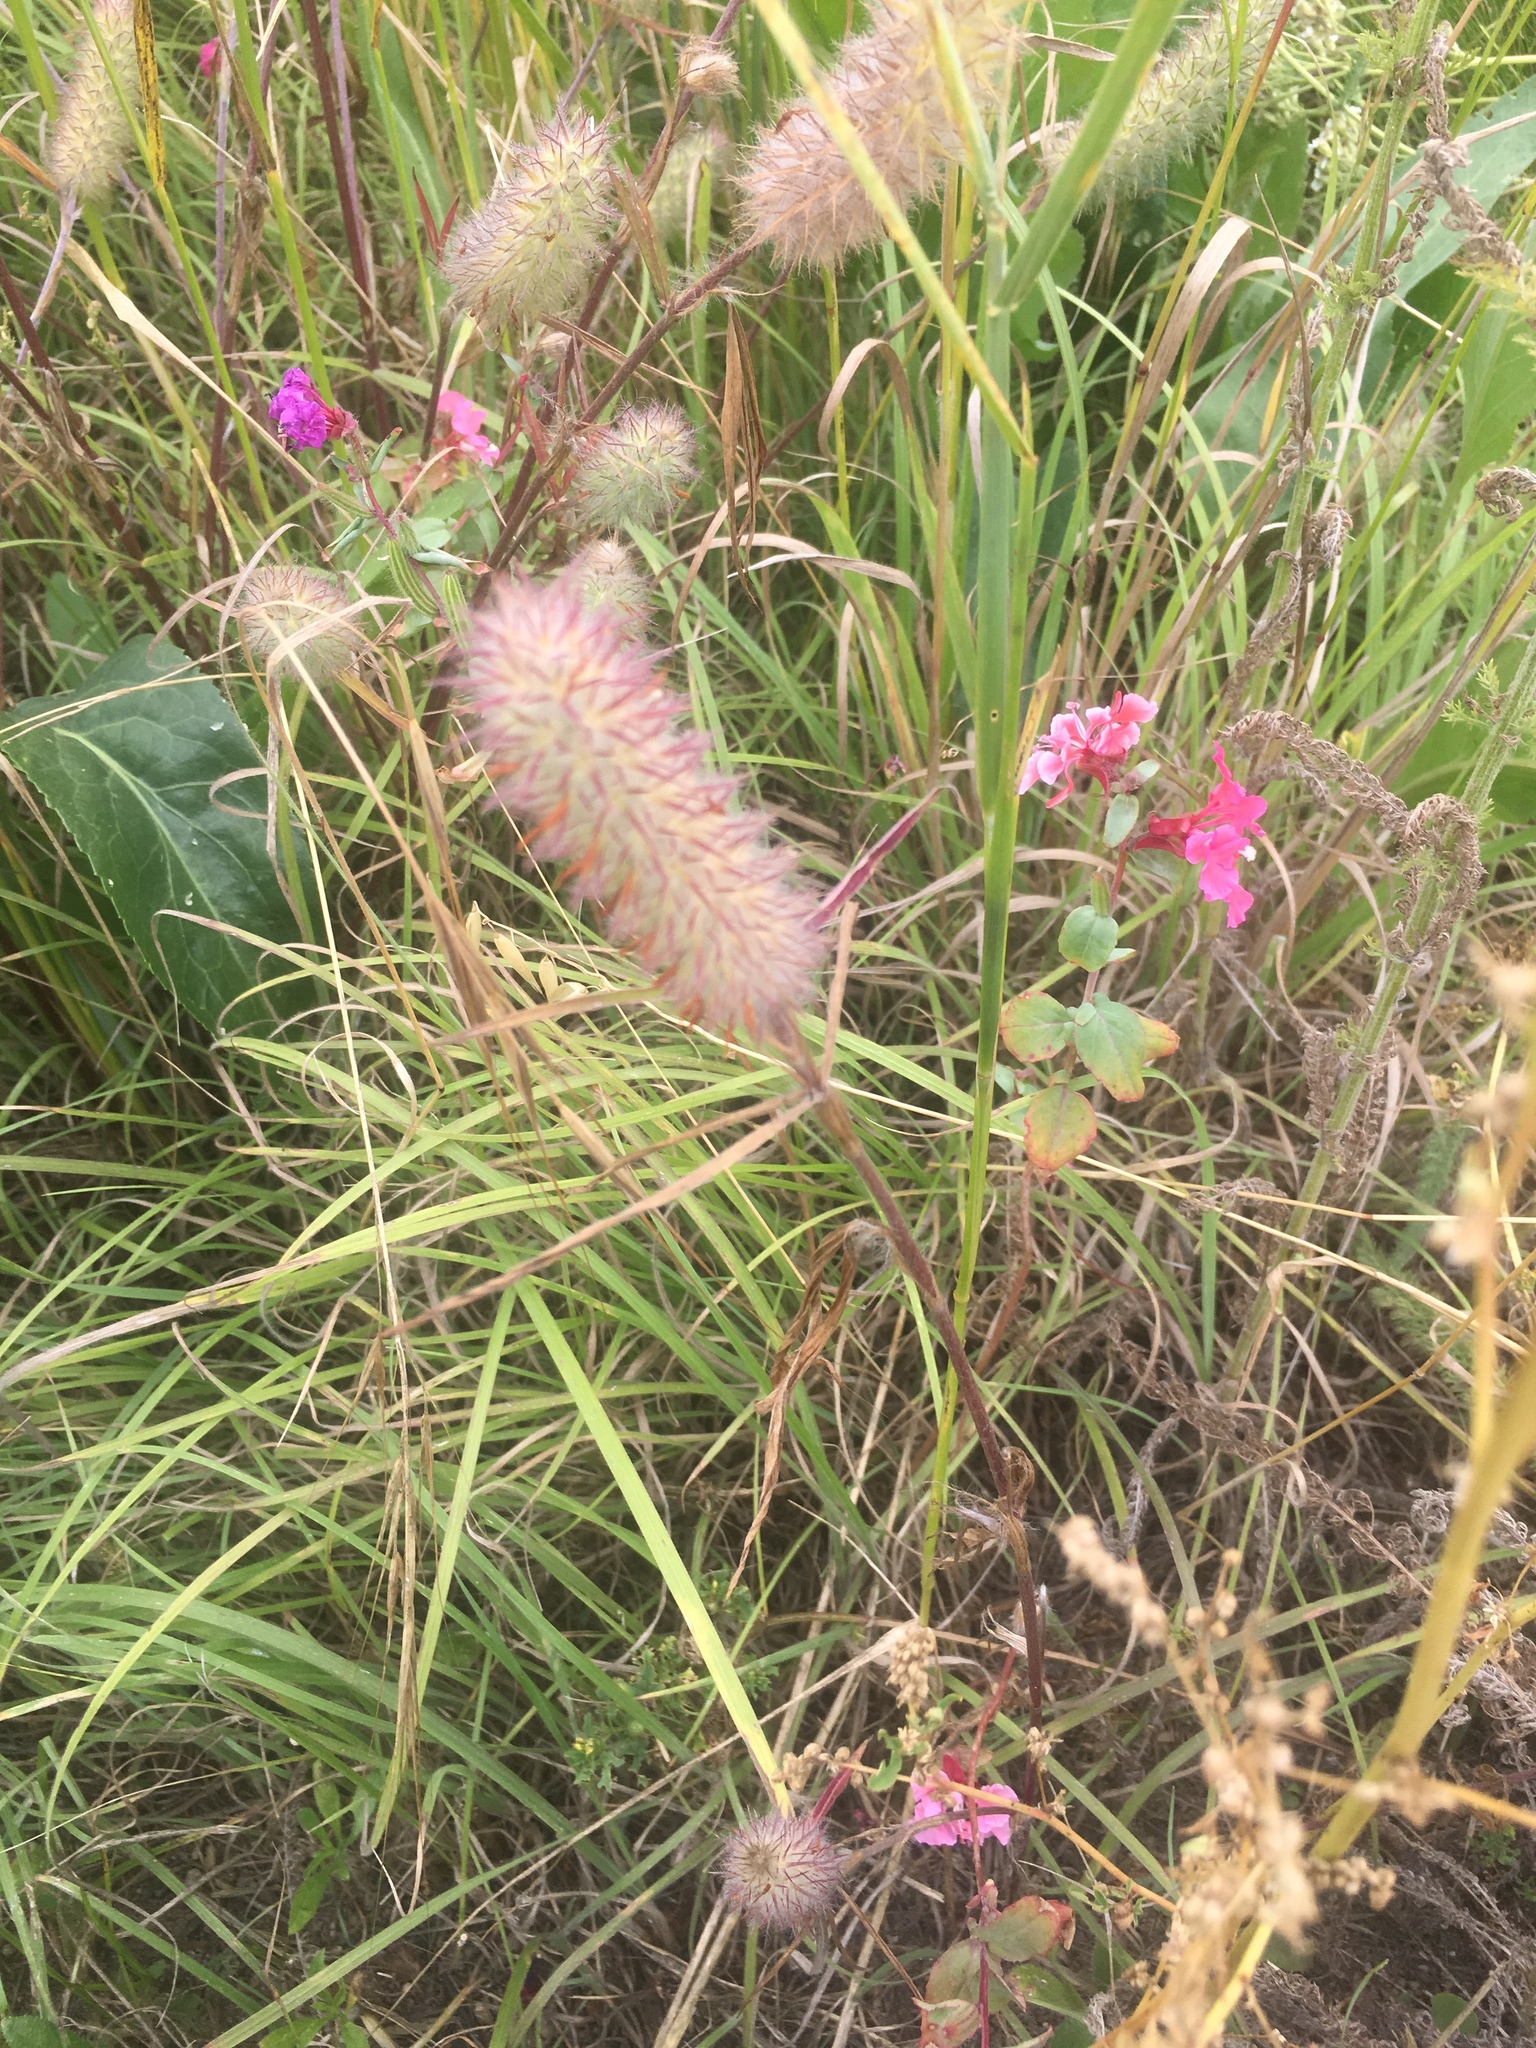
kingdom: Plantae
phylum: Tracheophyta
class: Magnoliopsida
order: Fabales
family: Fabaceae
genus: Trifolium
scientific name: Trifolium angustifolium
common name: Narrow clover
